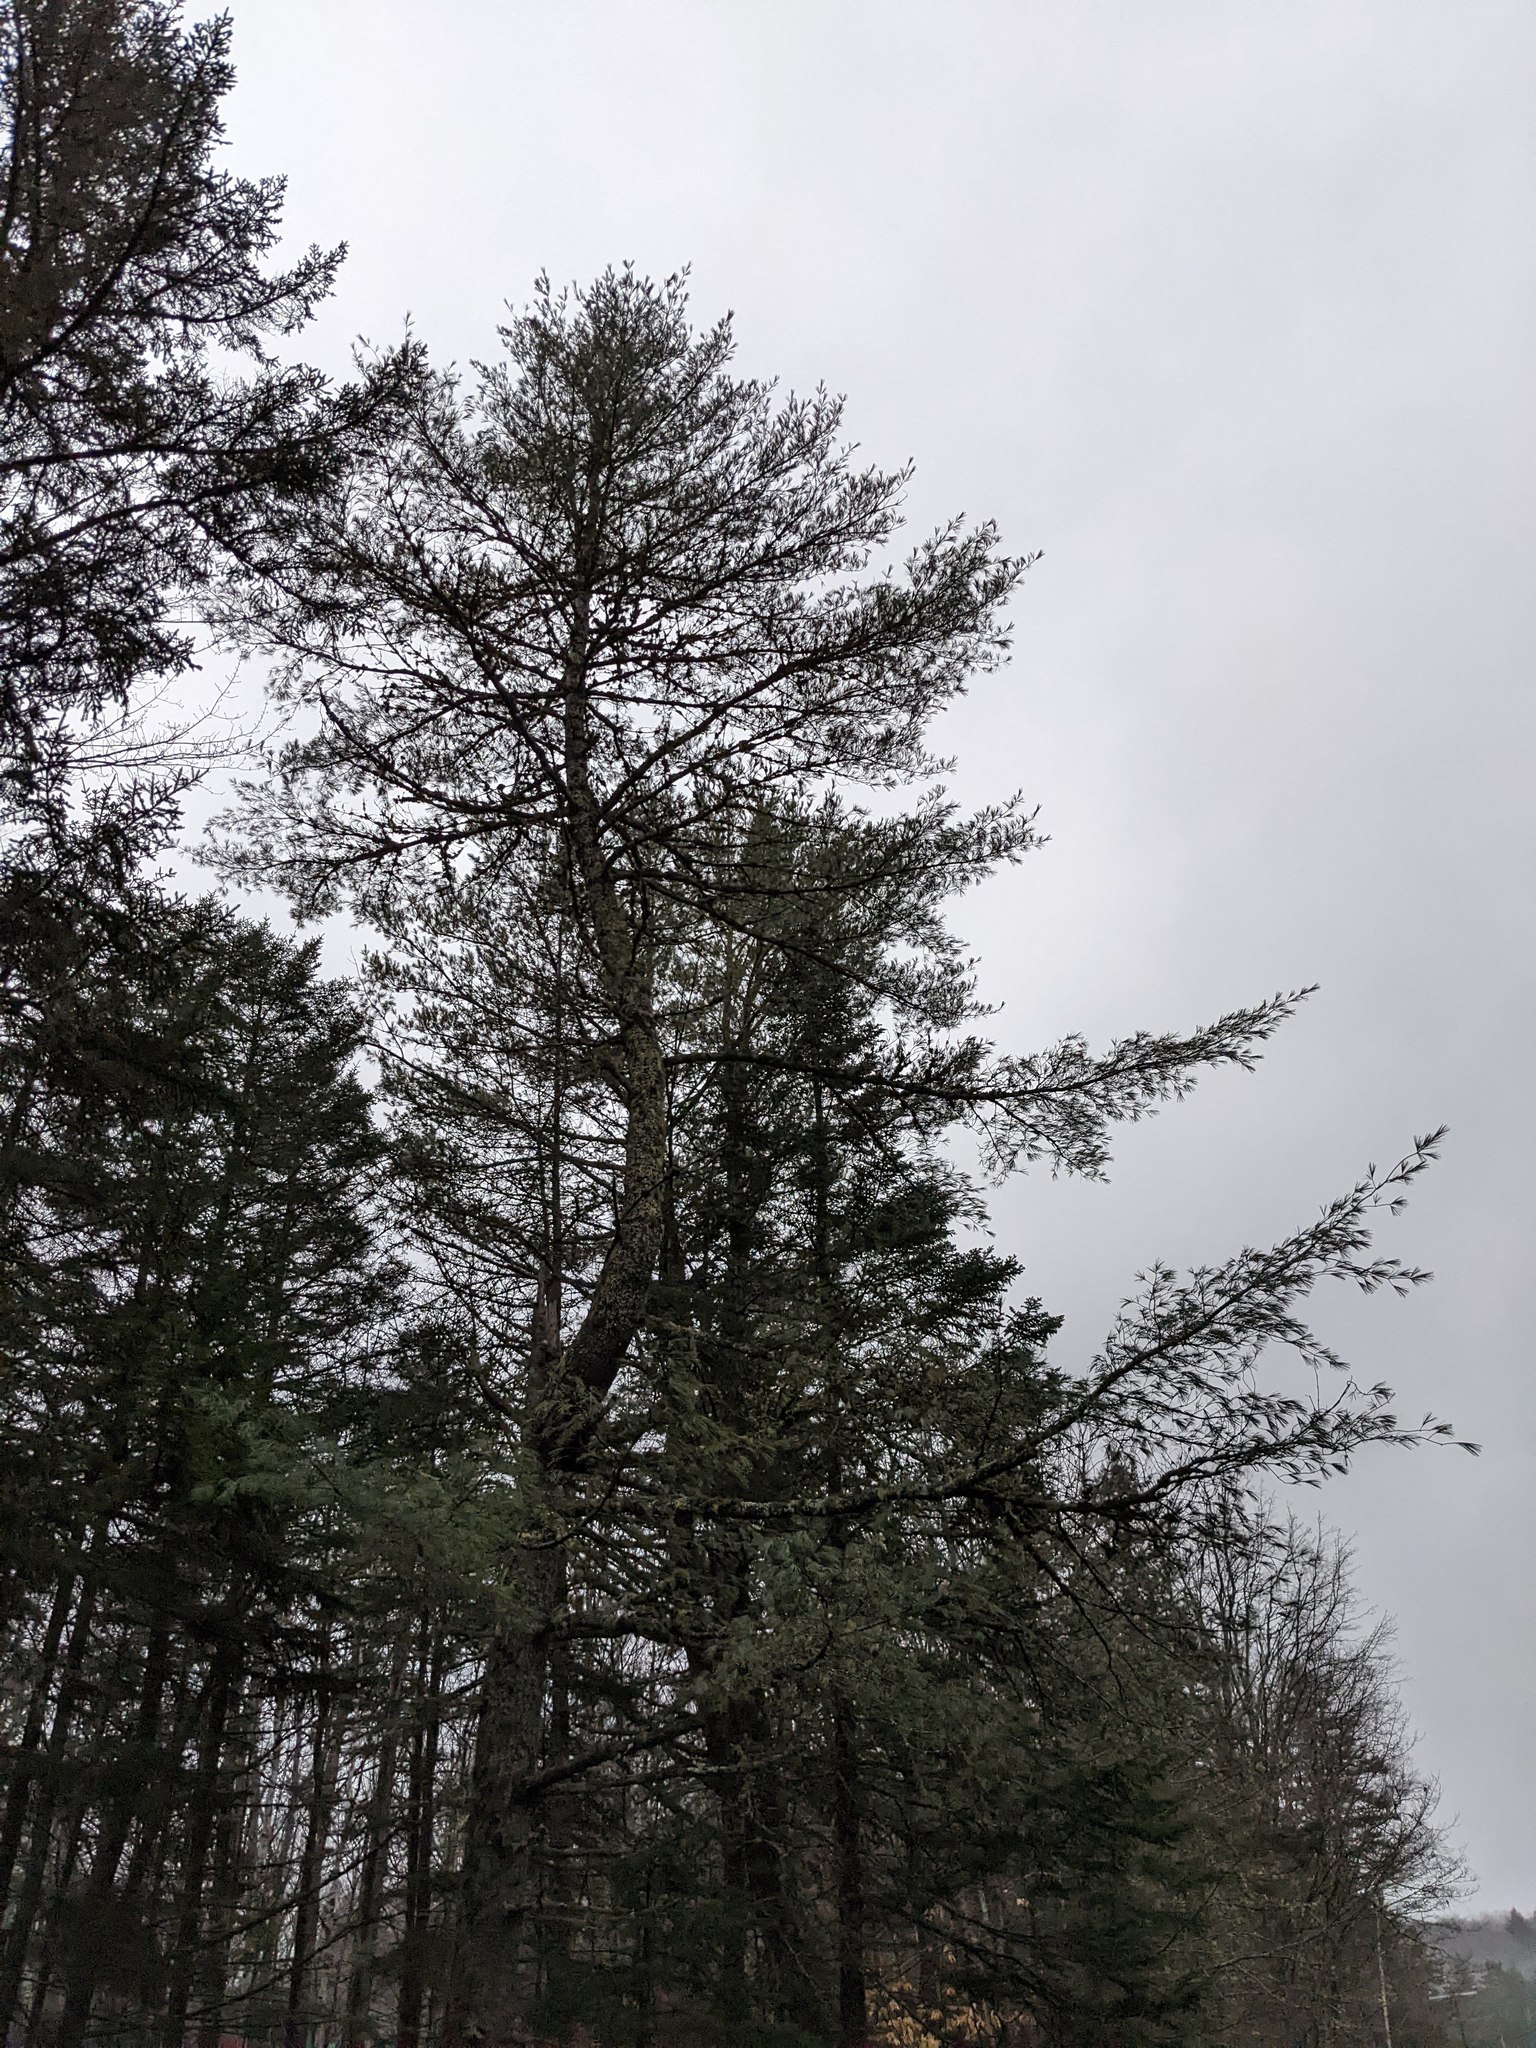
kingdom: Plantae
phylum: Tracheophyta
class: Pinopsida
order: Pinales
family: Pinaceae
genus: Pinus
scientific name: Pinus strobus
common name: Weymouth pine
